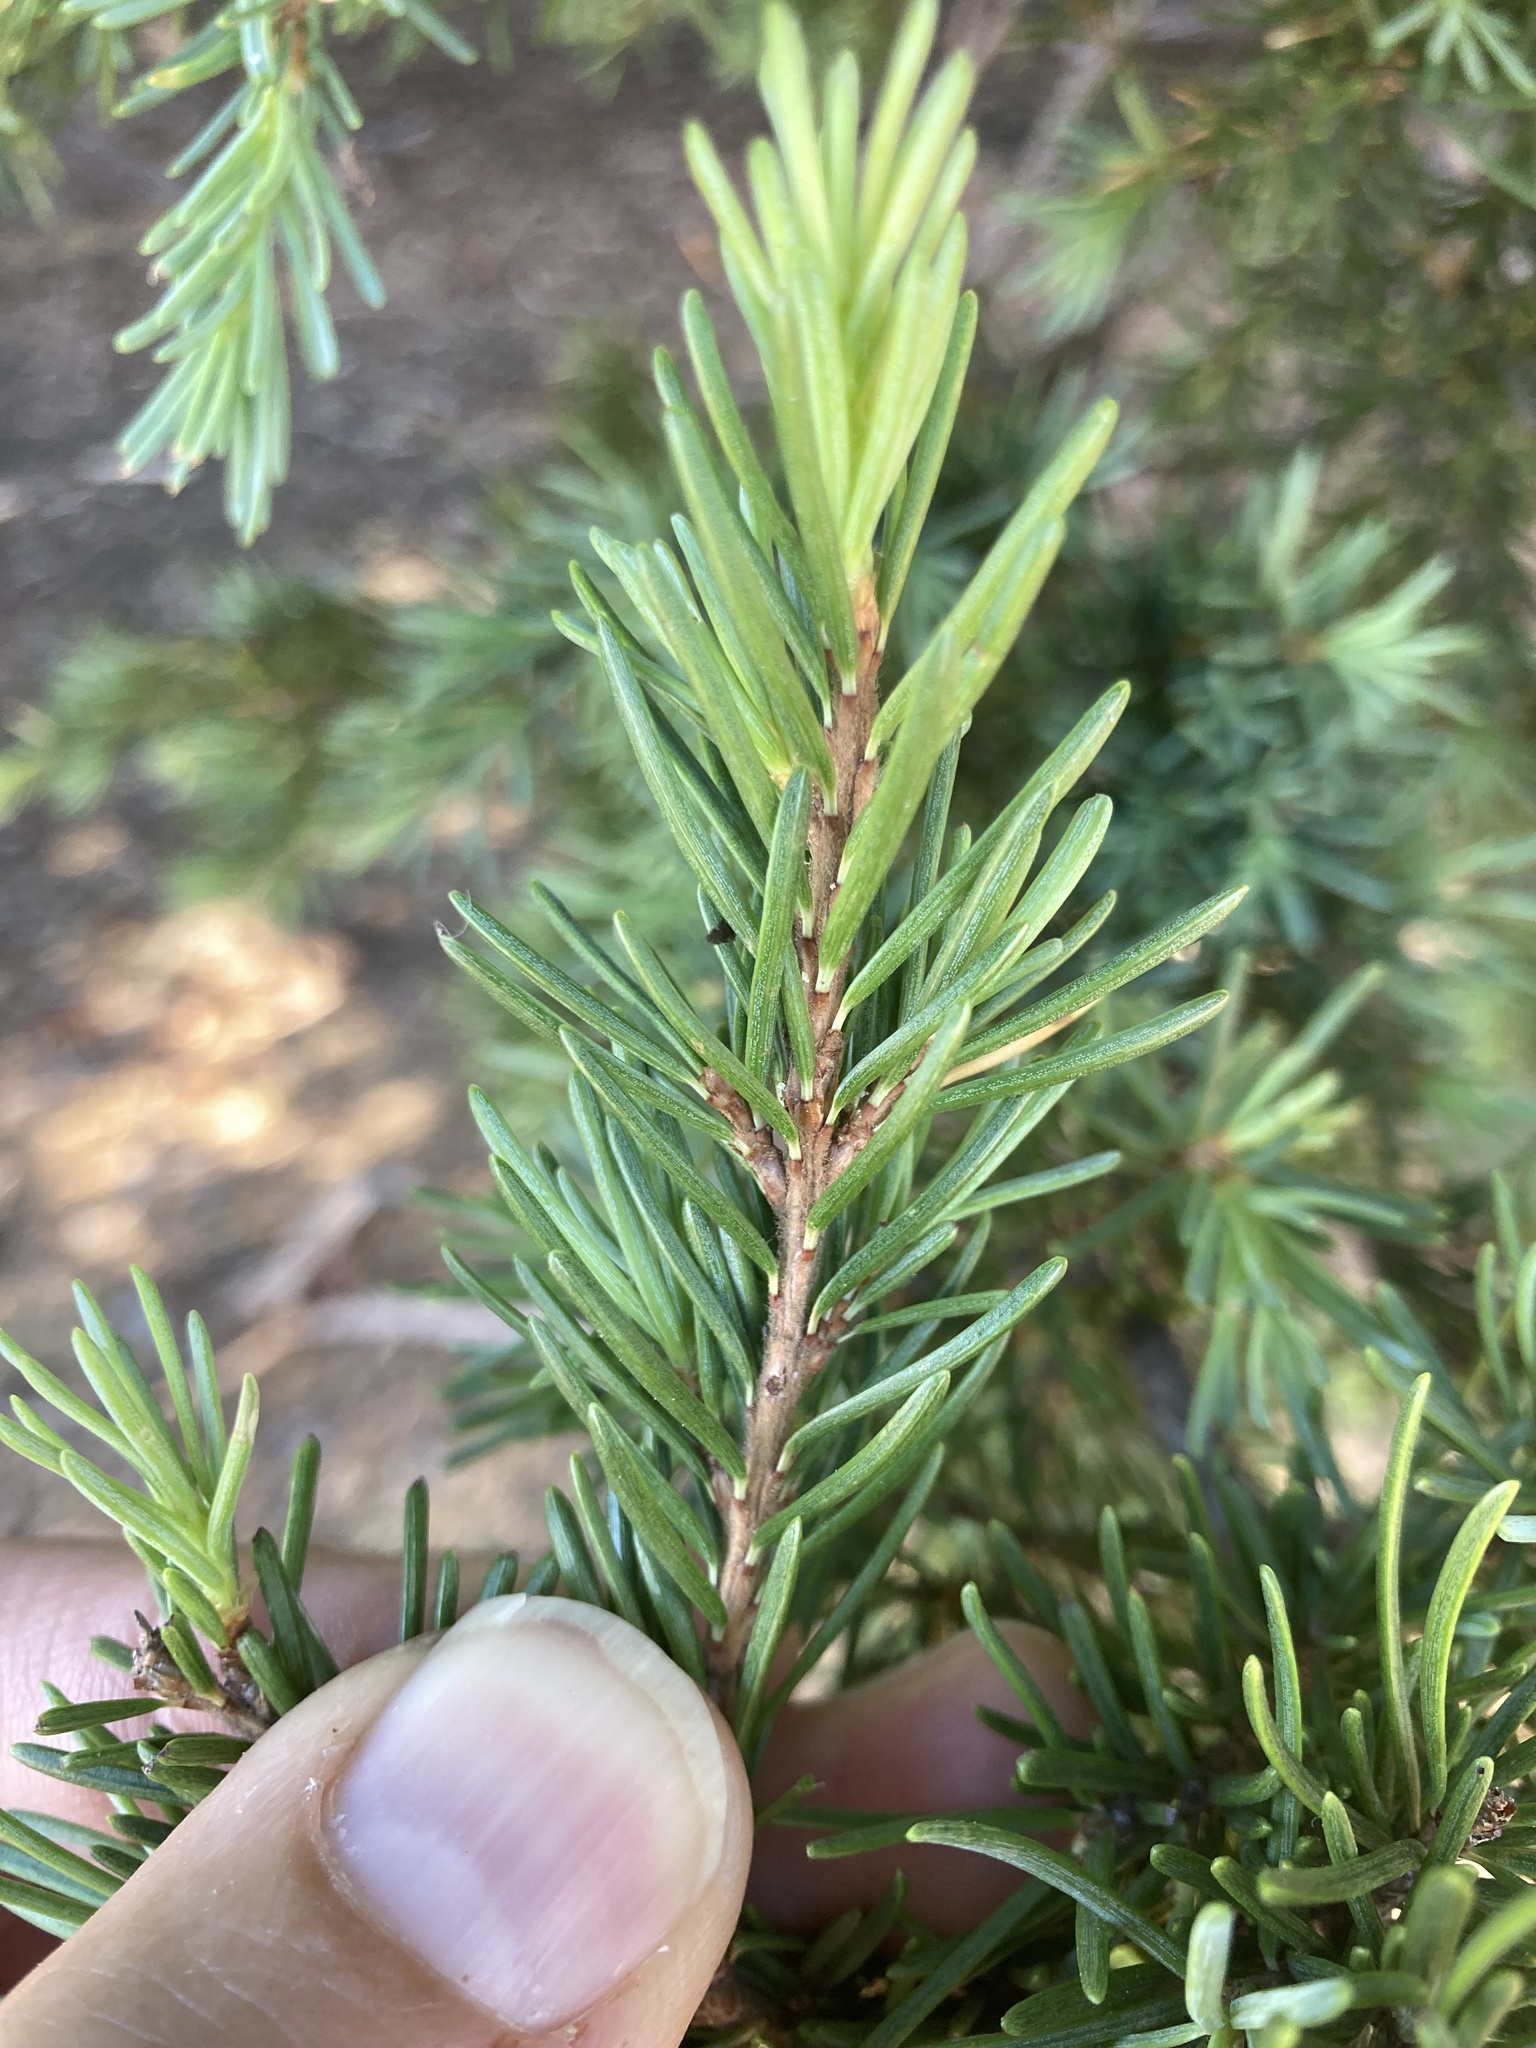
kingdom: Plantae
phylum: Tracheophyta
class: Pinopsida
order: Pinales
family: Pinaceae
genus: Tsuga
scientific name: Tsuga mertensiana
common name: Mountain hemlock
